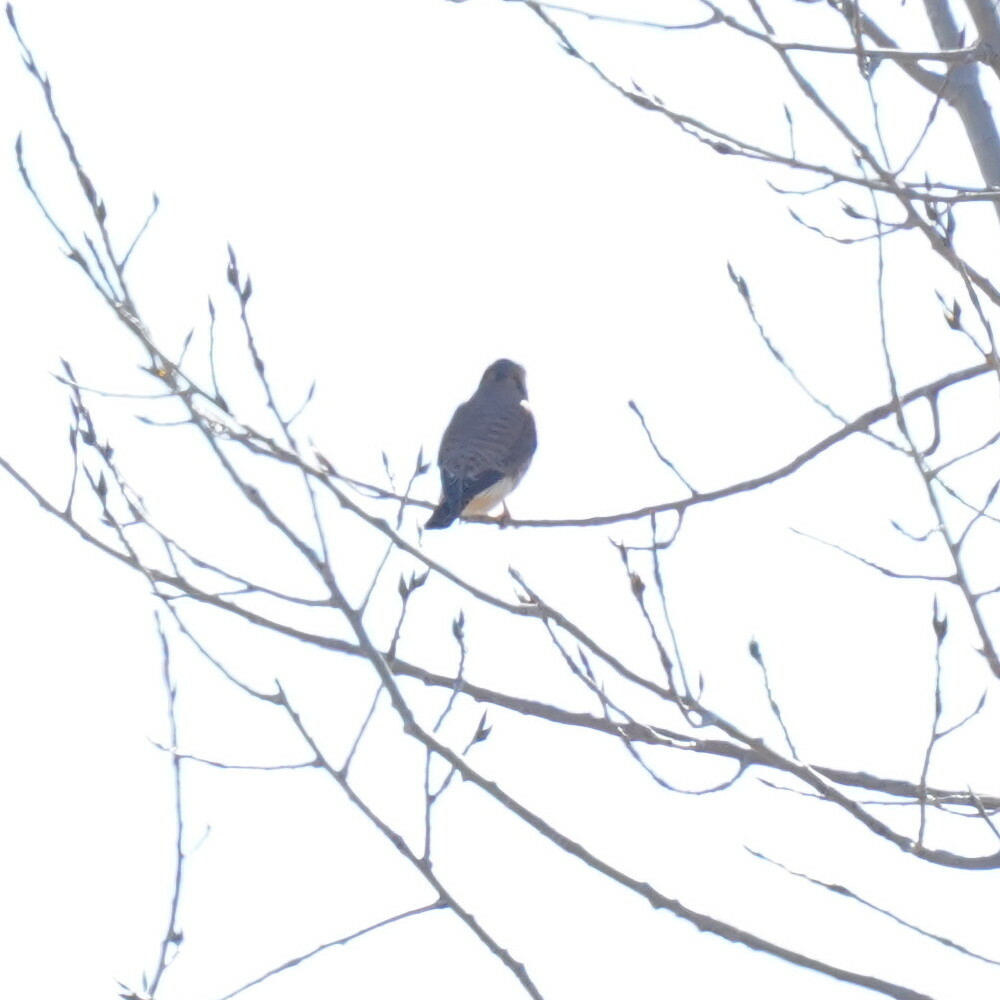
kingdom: Animalia
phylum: Chordata
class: Aves
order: Falconiformes
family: Falconidae
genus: Falco
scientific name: Falco sparverius
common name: American kestrel
